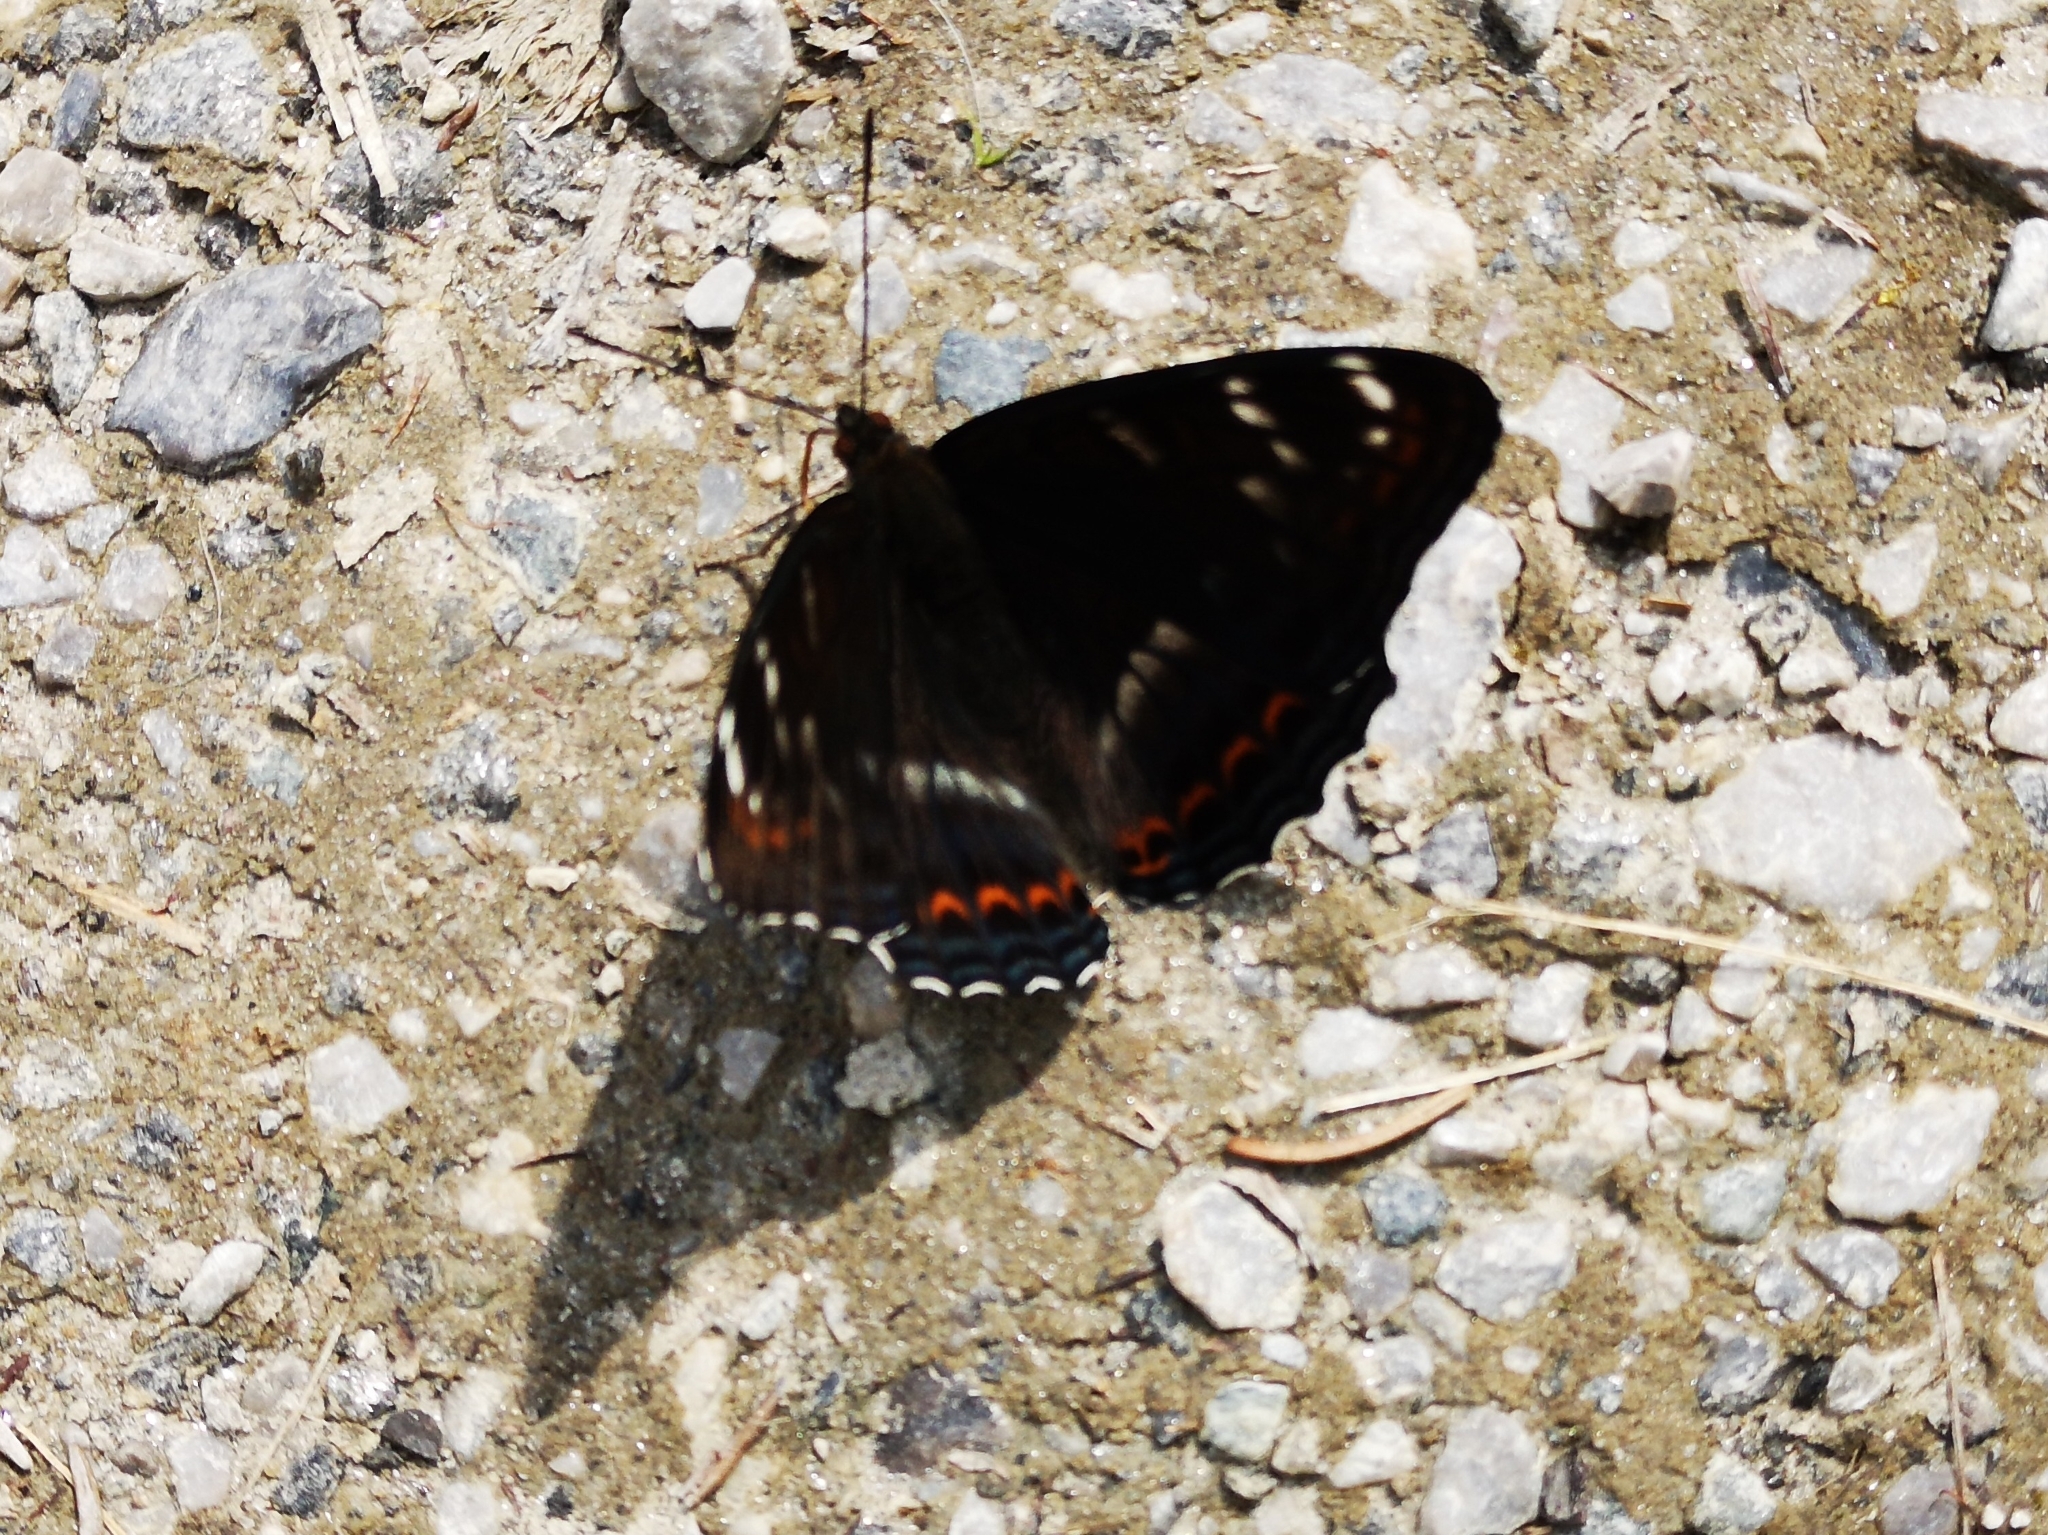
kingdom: Animalia
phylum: Arthropoda
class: Insecta
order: Lepidoptera
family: Nymphalidae
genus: Limenitis
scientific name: Limenitis populi
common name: Poplar admiral
